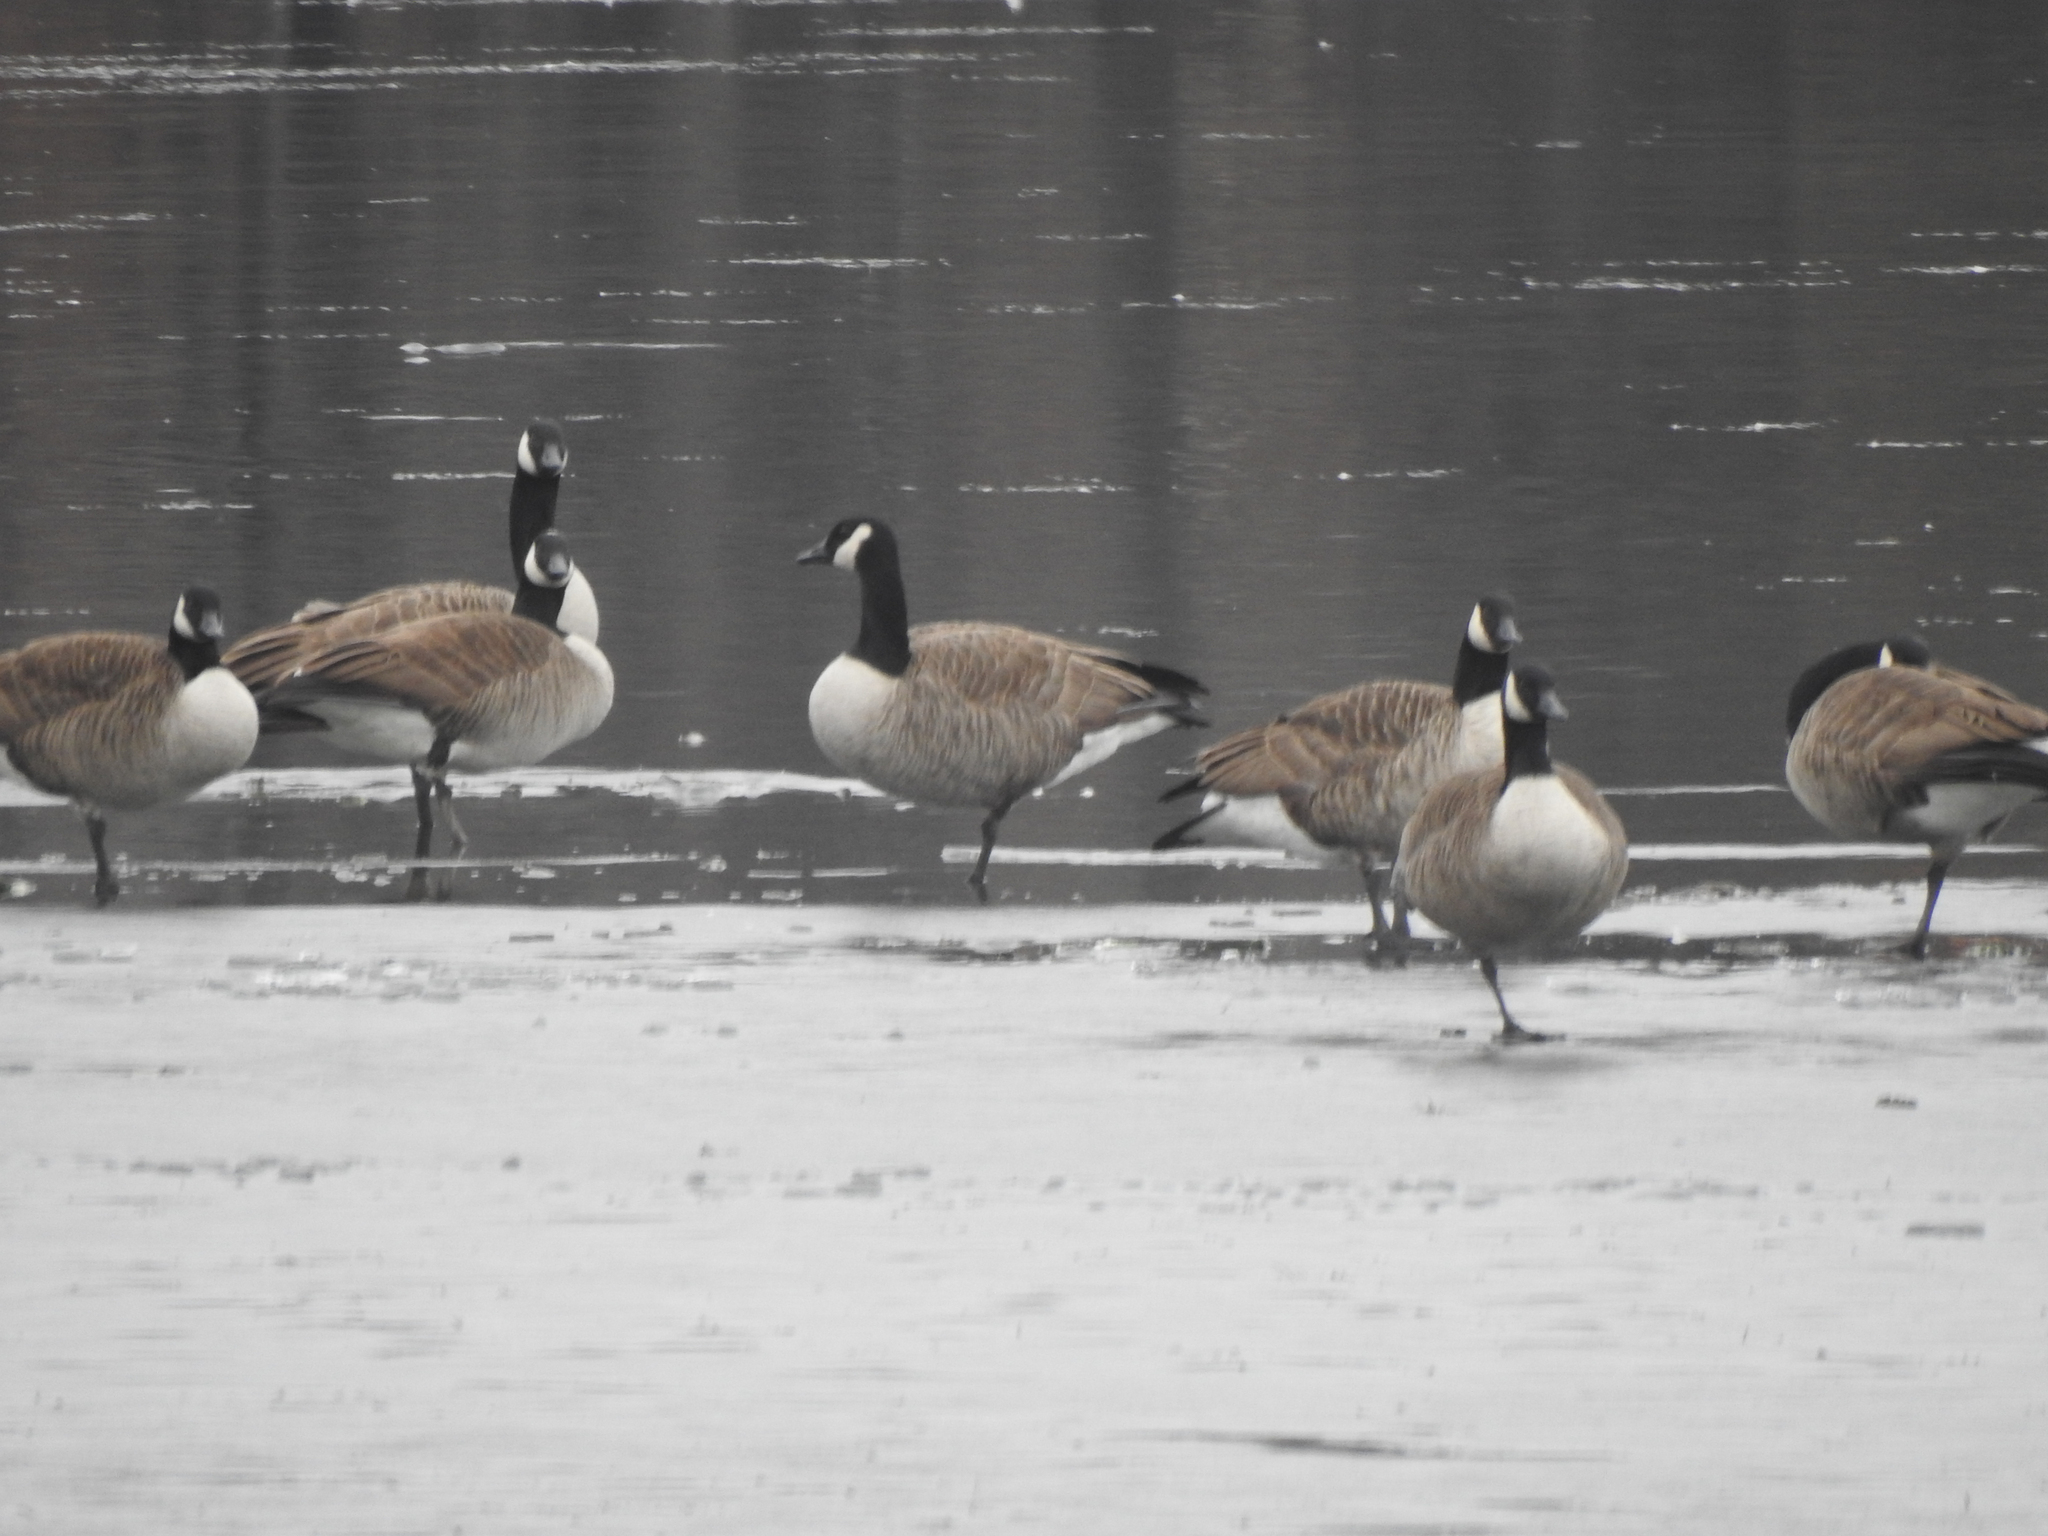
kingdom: Animalia
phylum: Chordata
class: Aves
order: Anseriformes
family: Anatidae
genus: Branta
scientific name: Branta canadensis
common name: Canada goose
